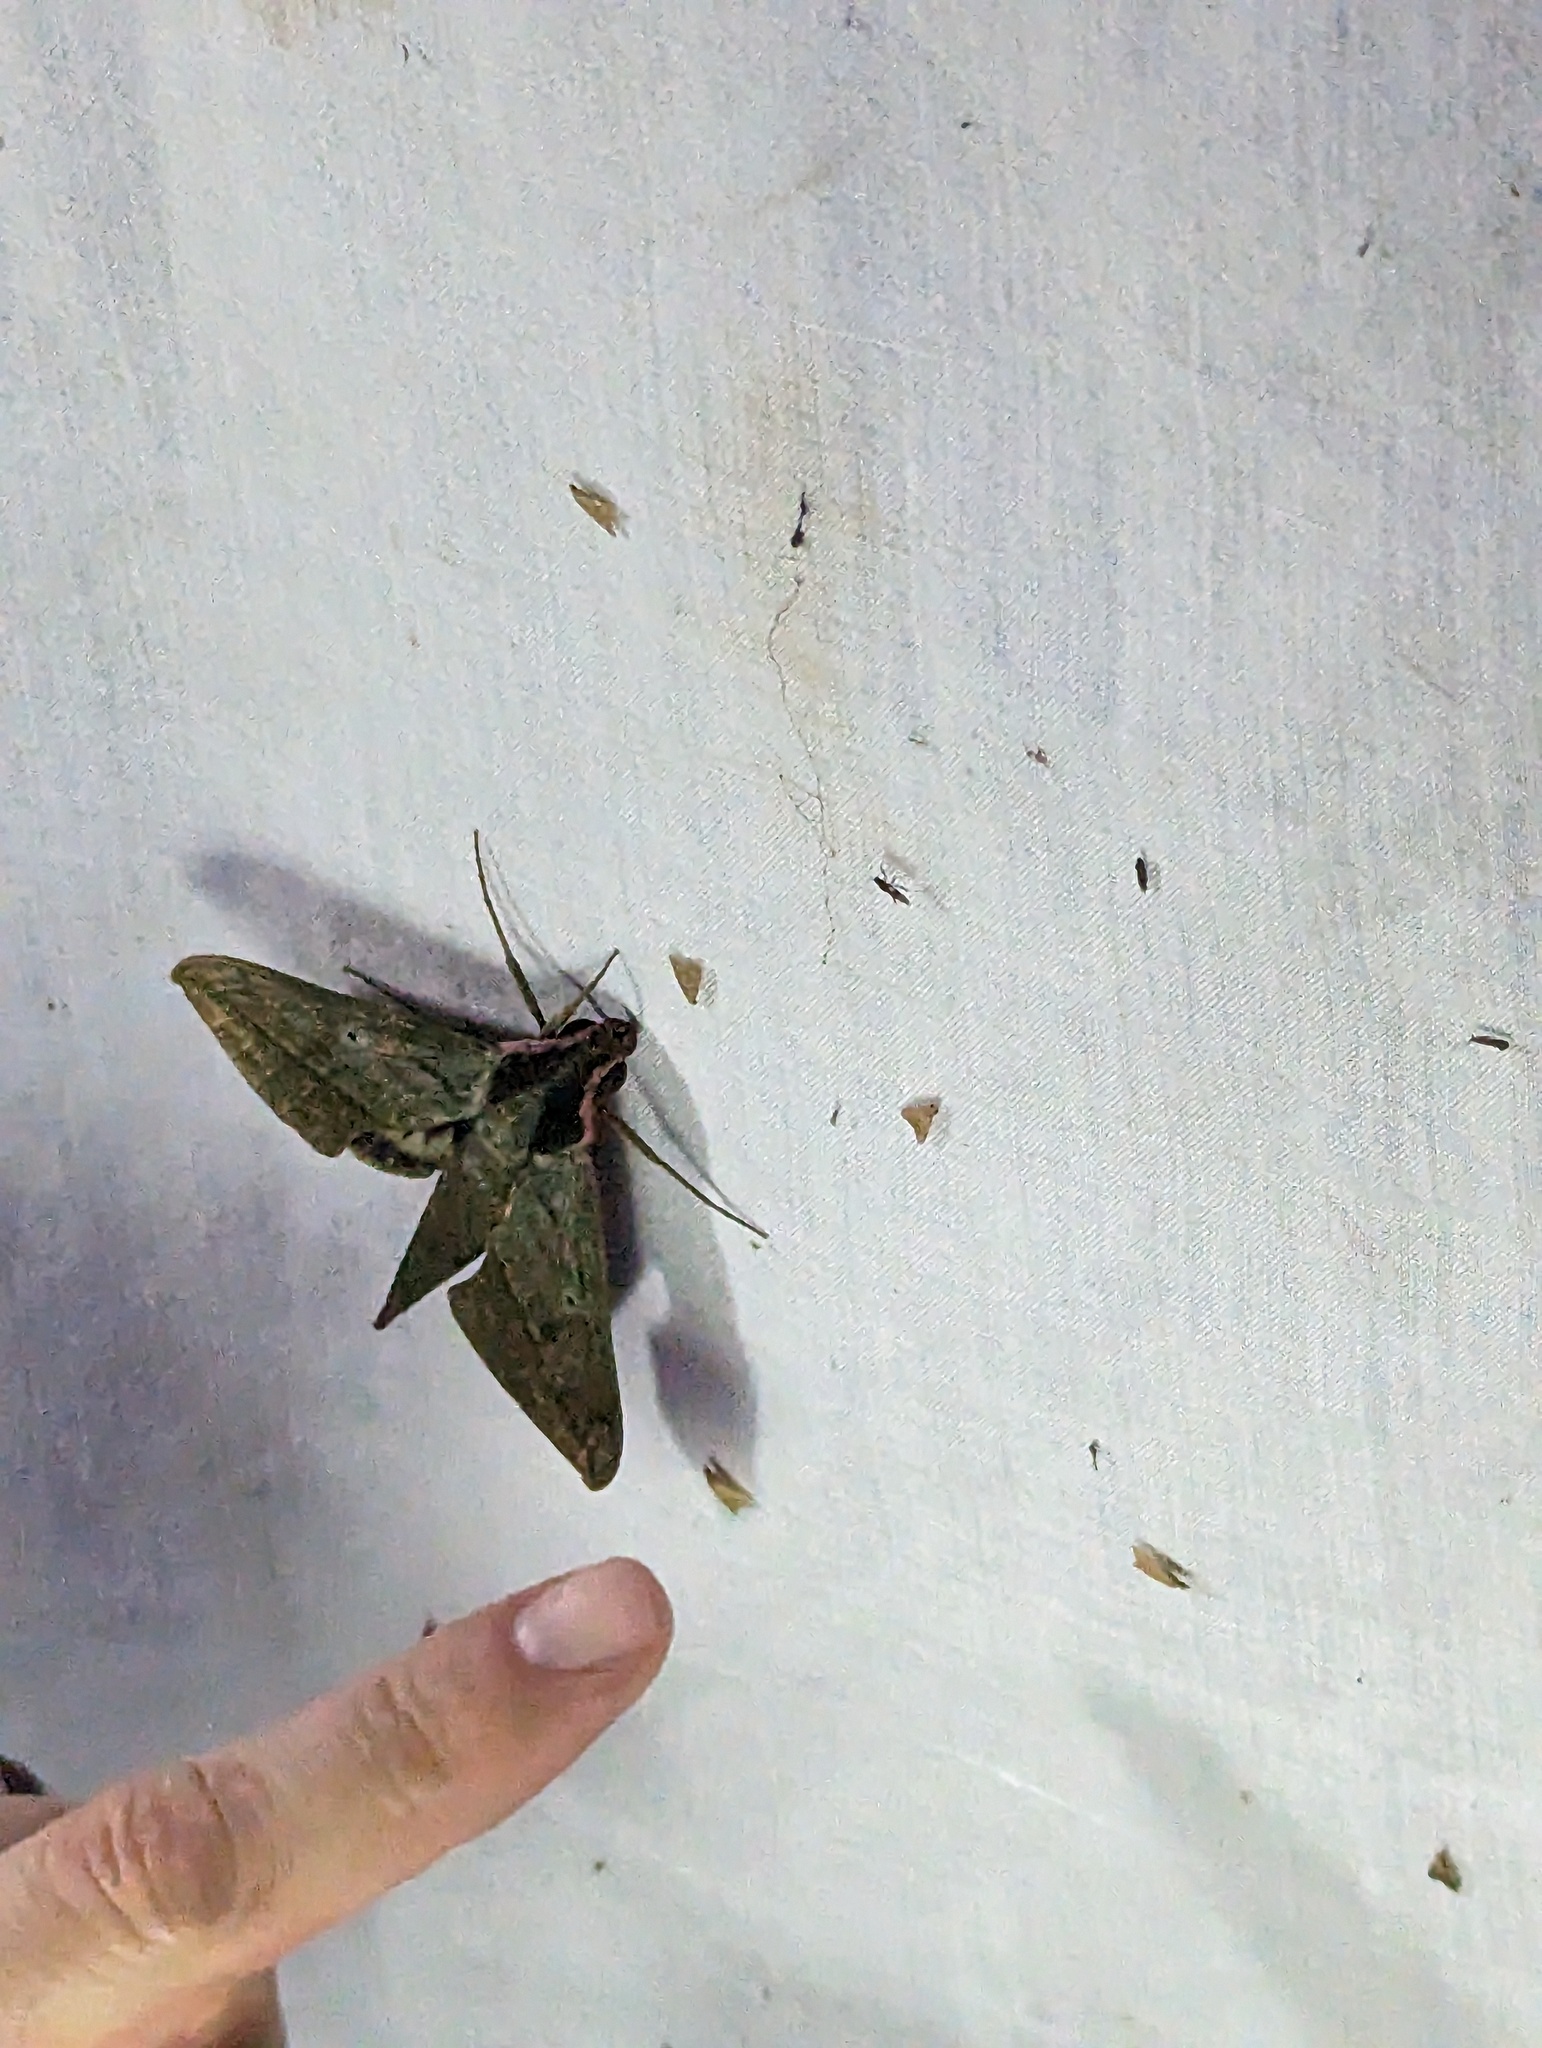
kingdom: Animalia
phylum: Arthropoda
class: Insecta
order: Lepidoptera
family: Sphingidae
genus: Xylophanes
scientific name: Xylophanes belti
